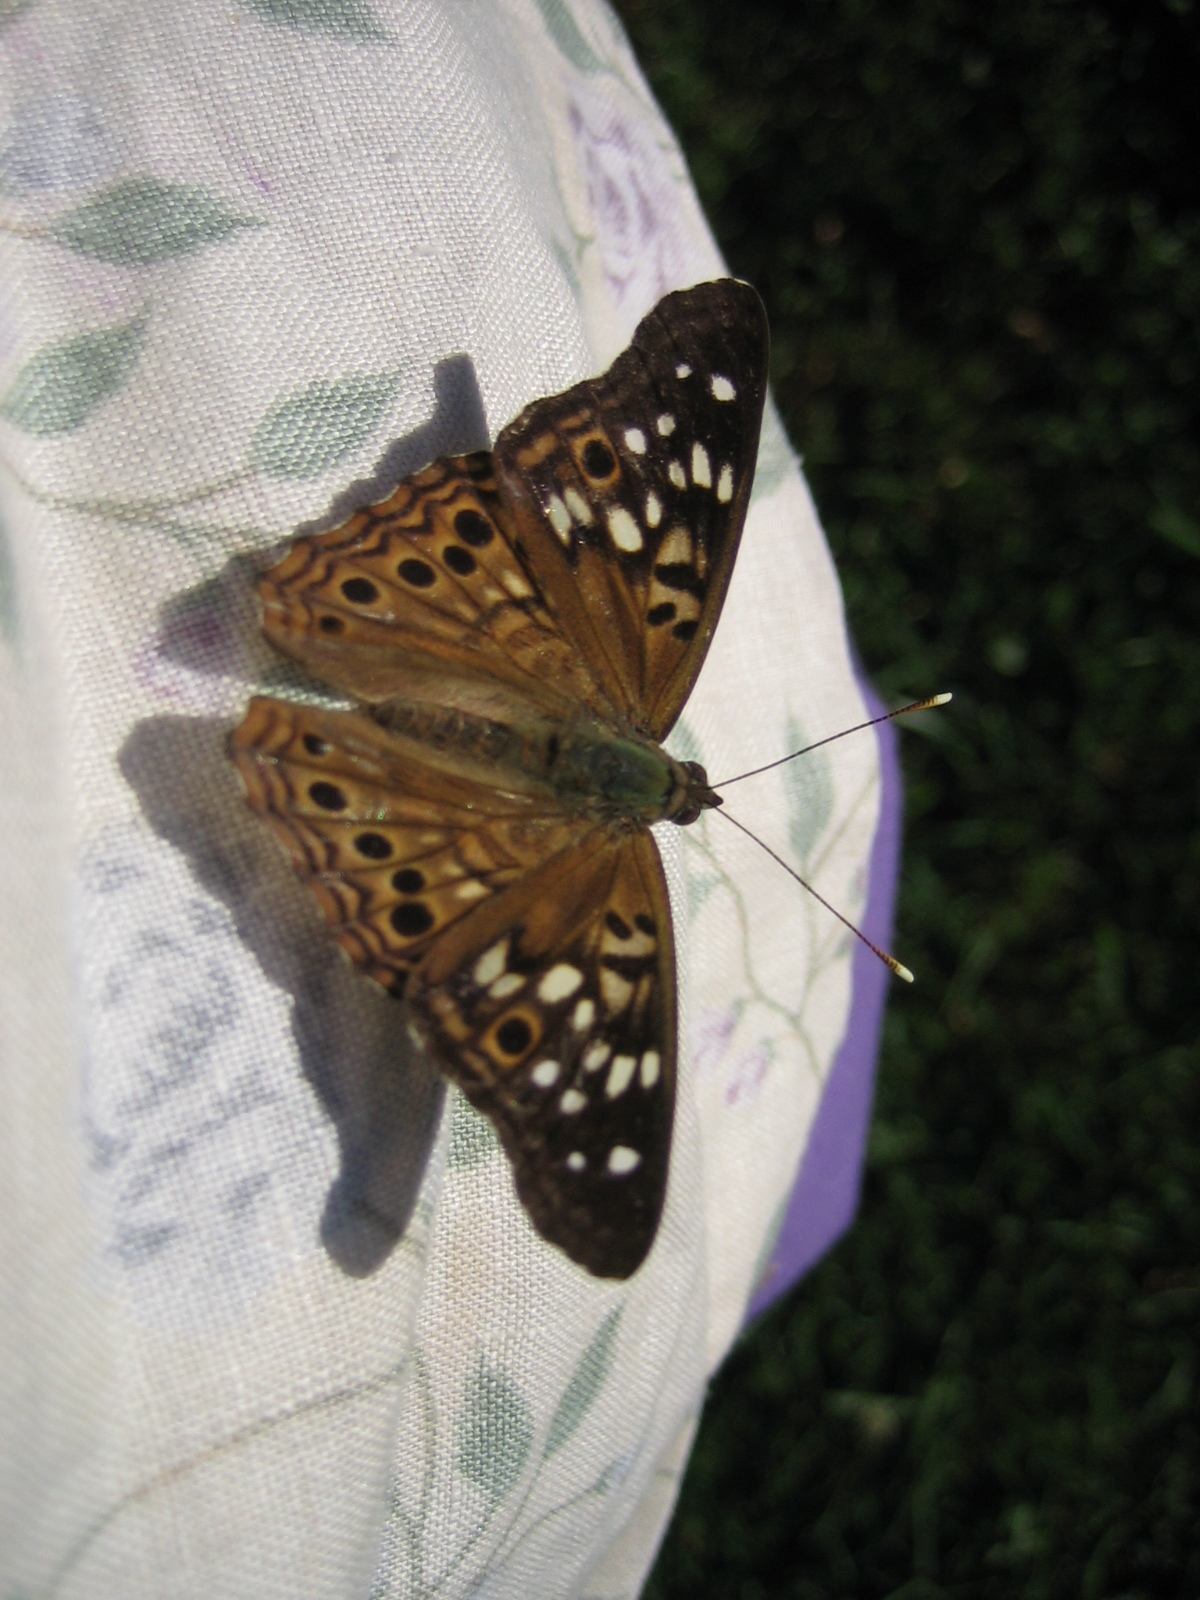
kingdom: Animalia
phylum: Arthropoda
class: Insecta
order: Lepidoptera
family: Nymphalidae
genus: Asterocampa
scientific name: Asterocampa celtis
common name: Hackberry emperor
